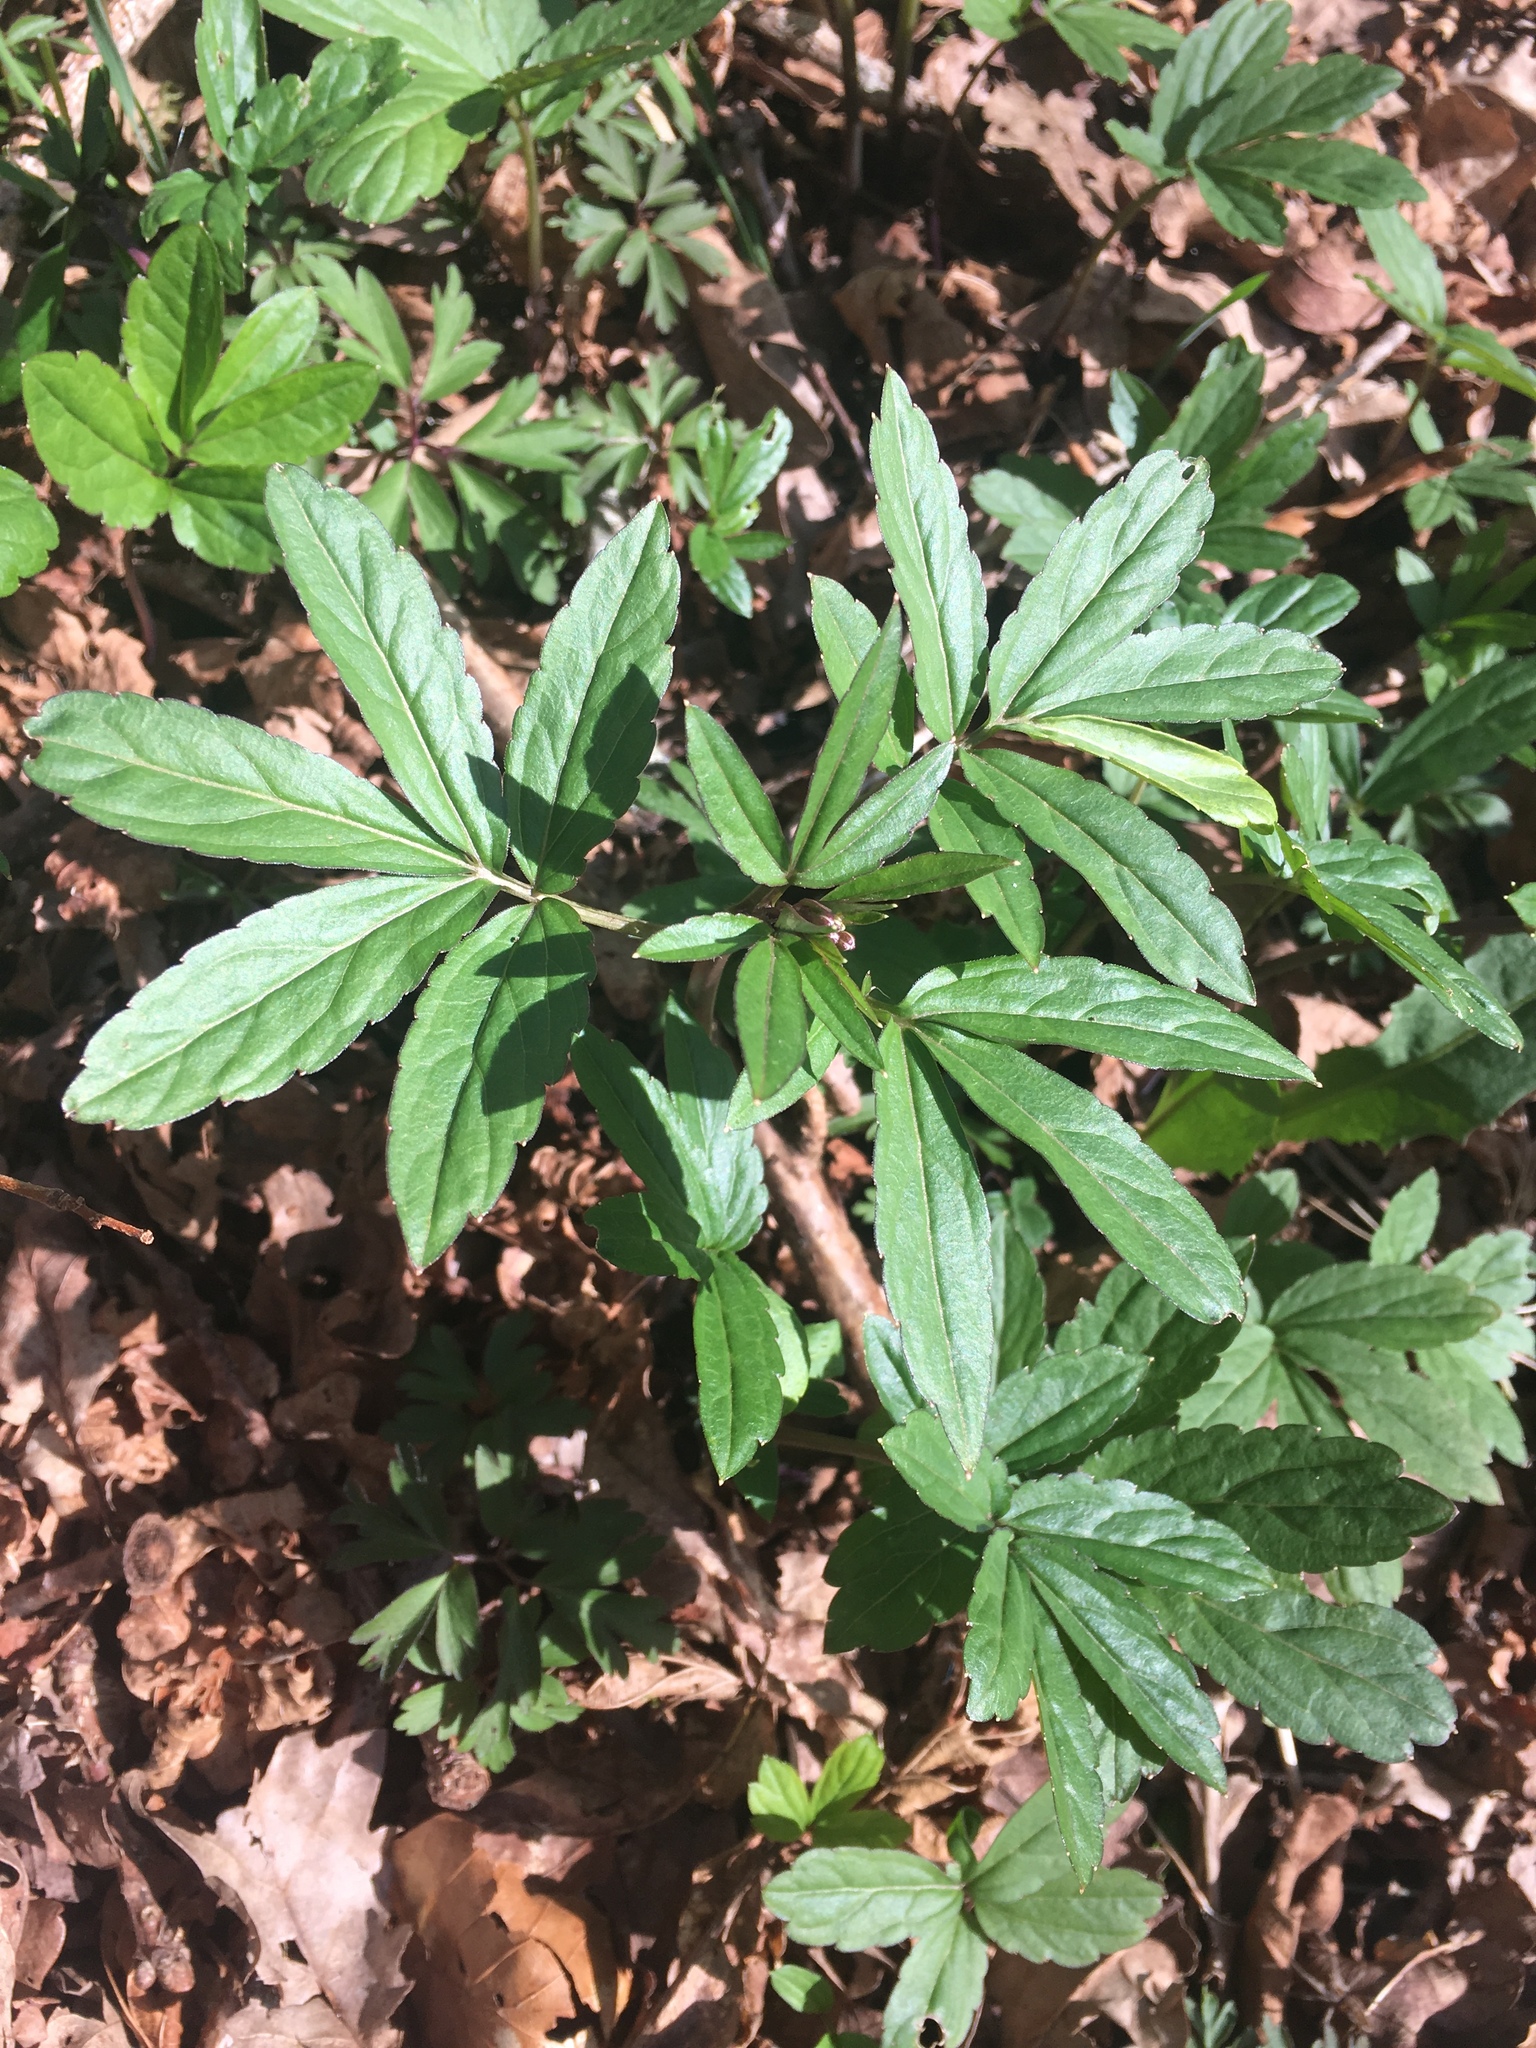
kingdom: Plantae
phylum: Tracheophyta
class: Magnoliopsida
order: Brassicales
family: Brassicaceae
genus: Cardamine
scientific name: Cardamine bulbifera
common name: Coralroot bittercress
